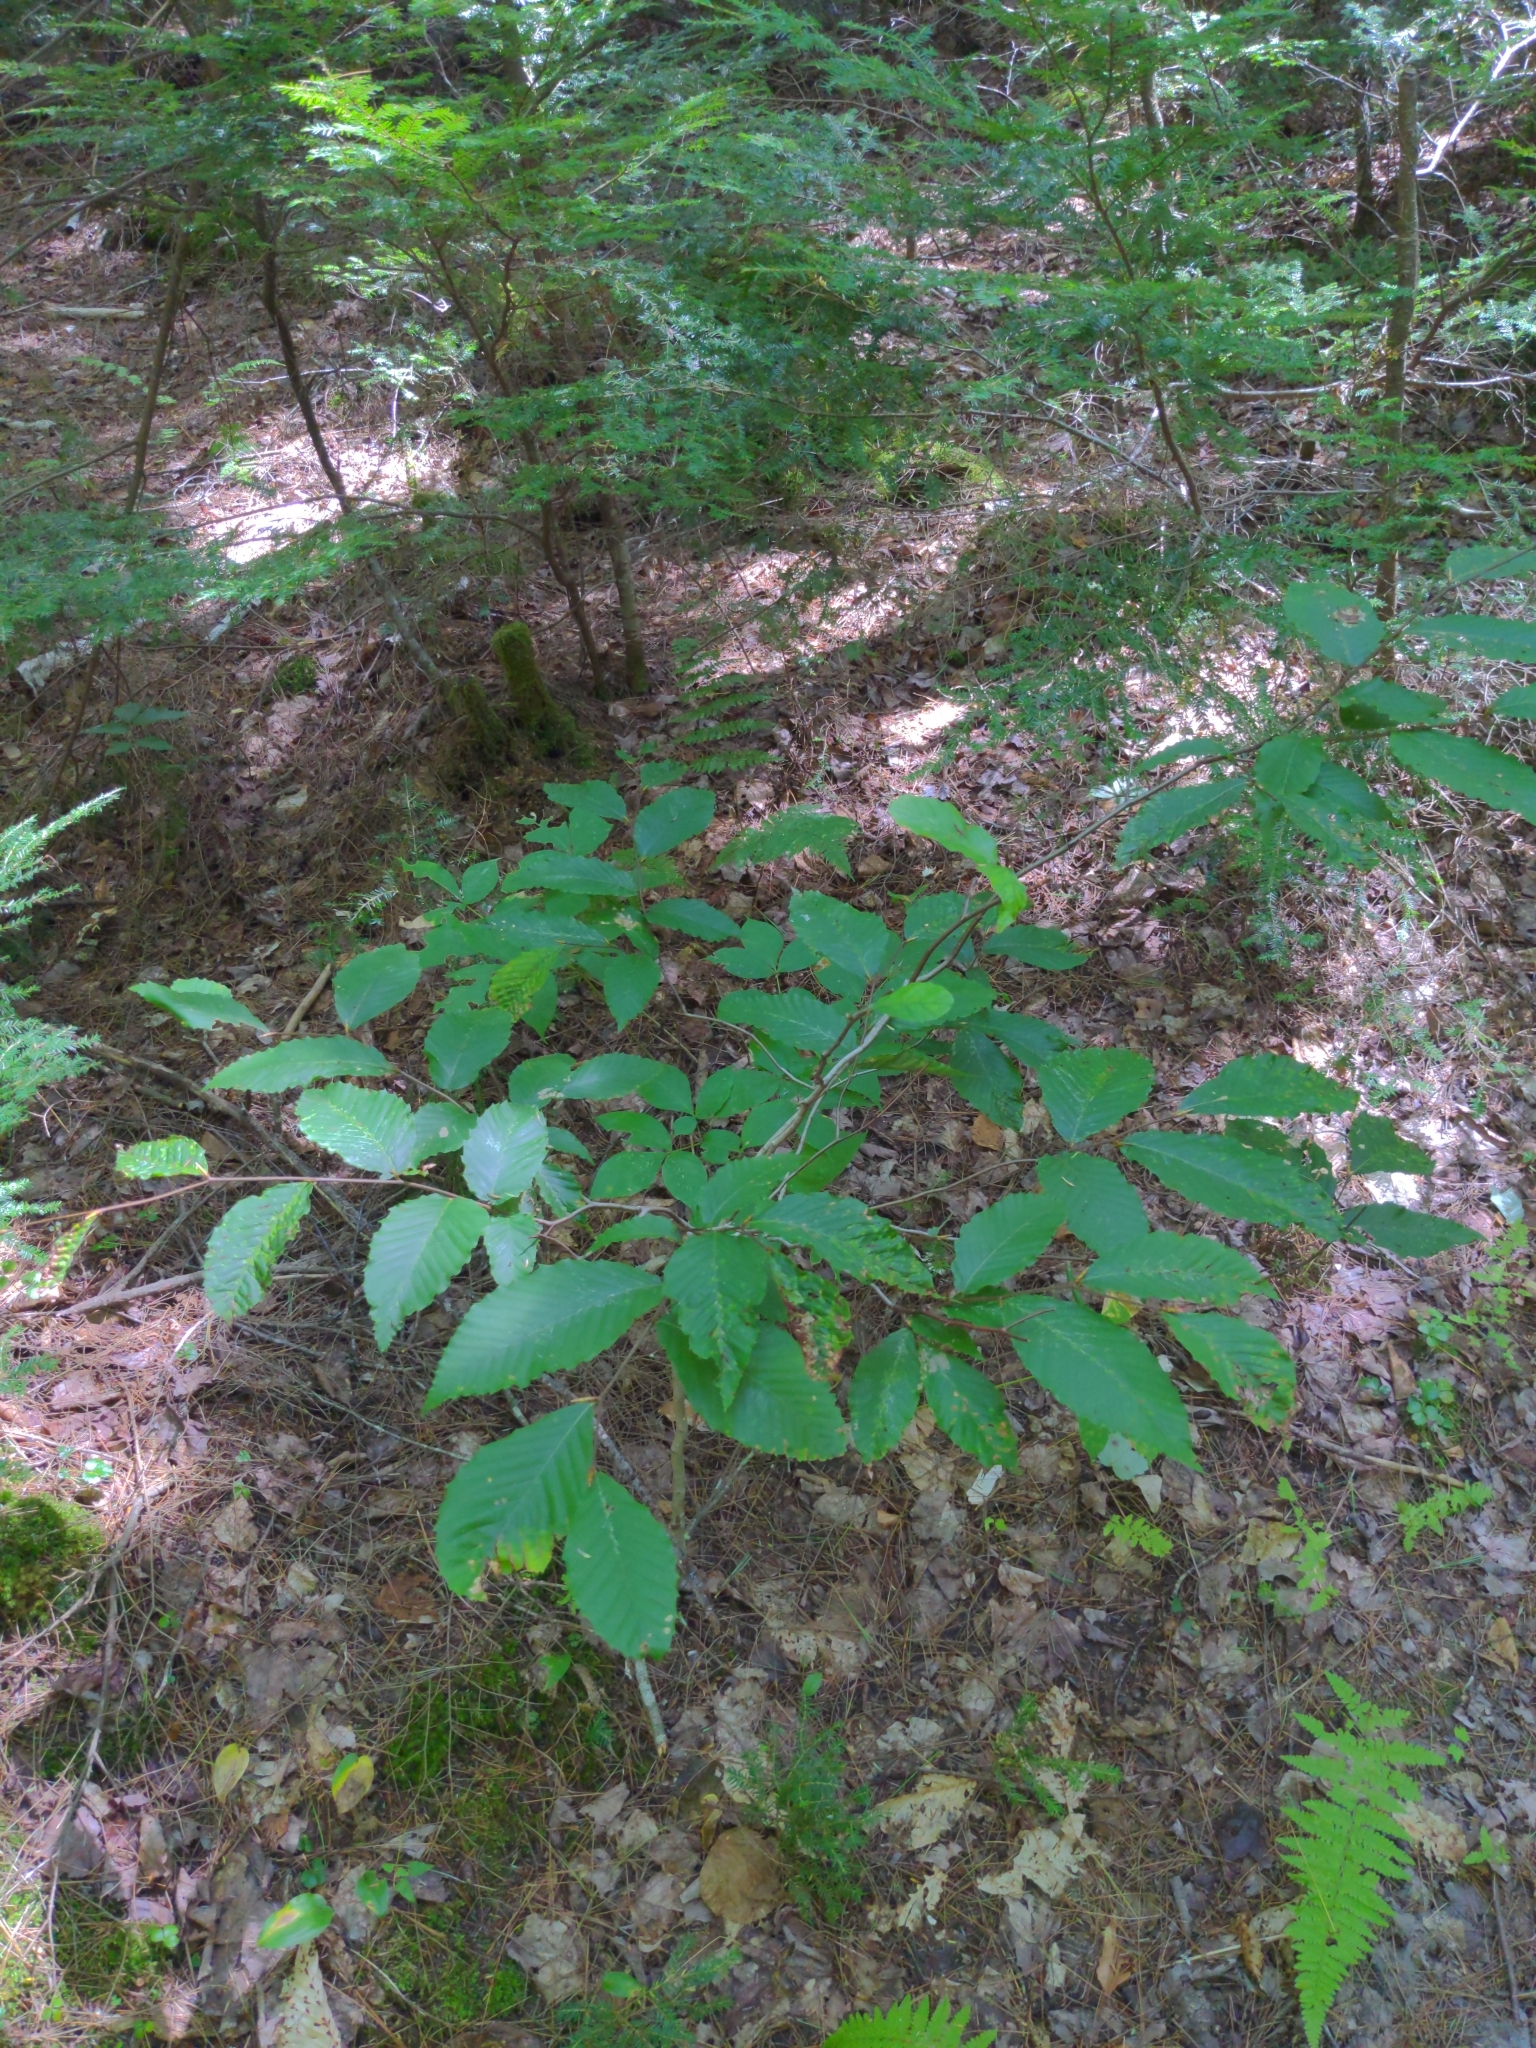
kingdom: Plantae
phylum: Tracheophyta
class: Magnoliopsida
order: Fagales
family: Fagaceae
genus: Fagus
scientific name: Fagus grandifolia
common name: American beech
